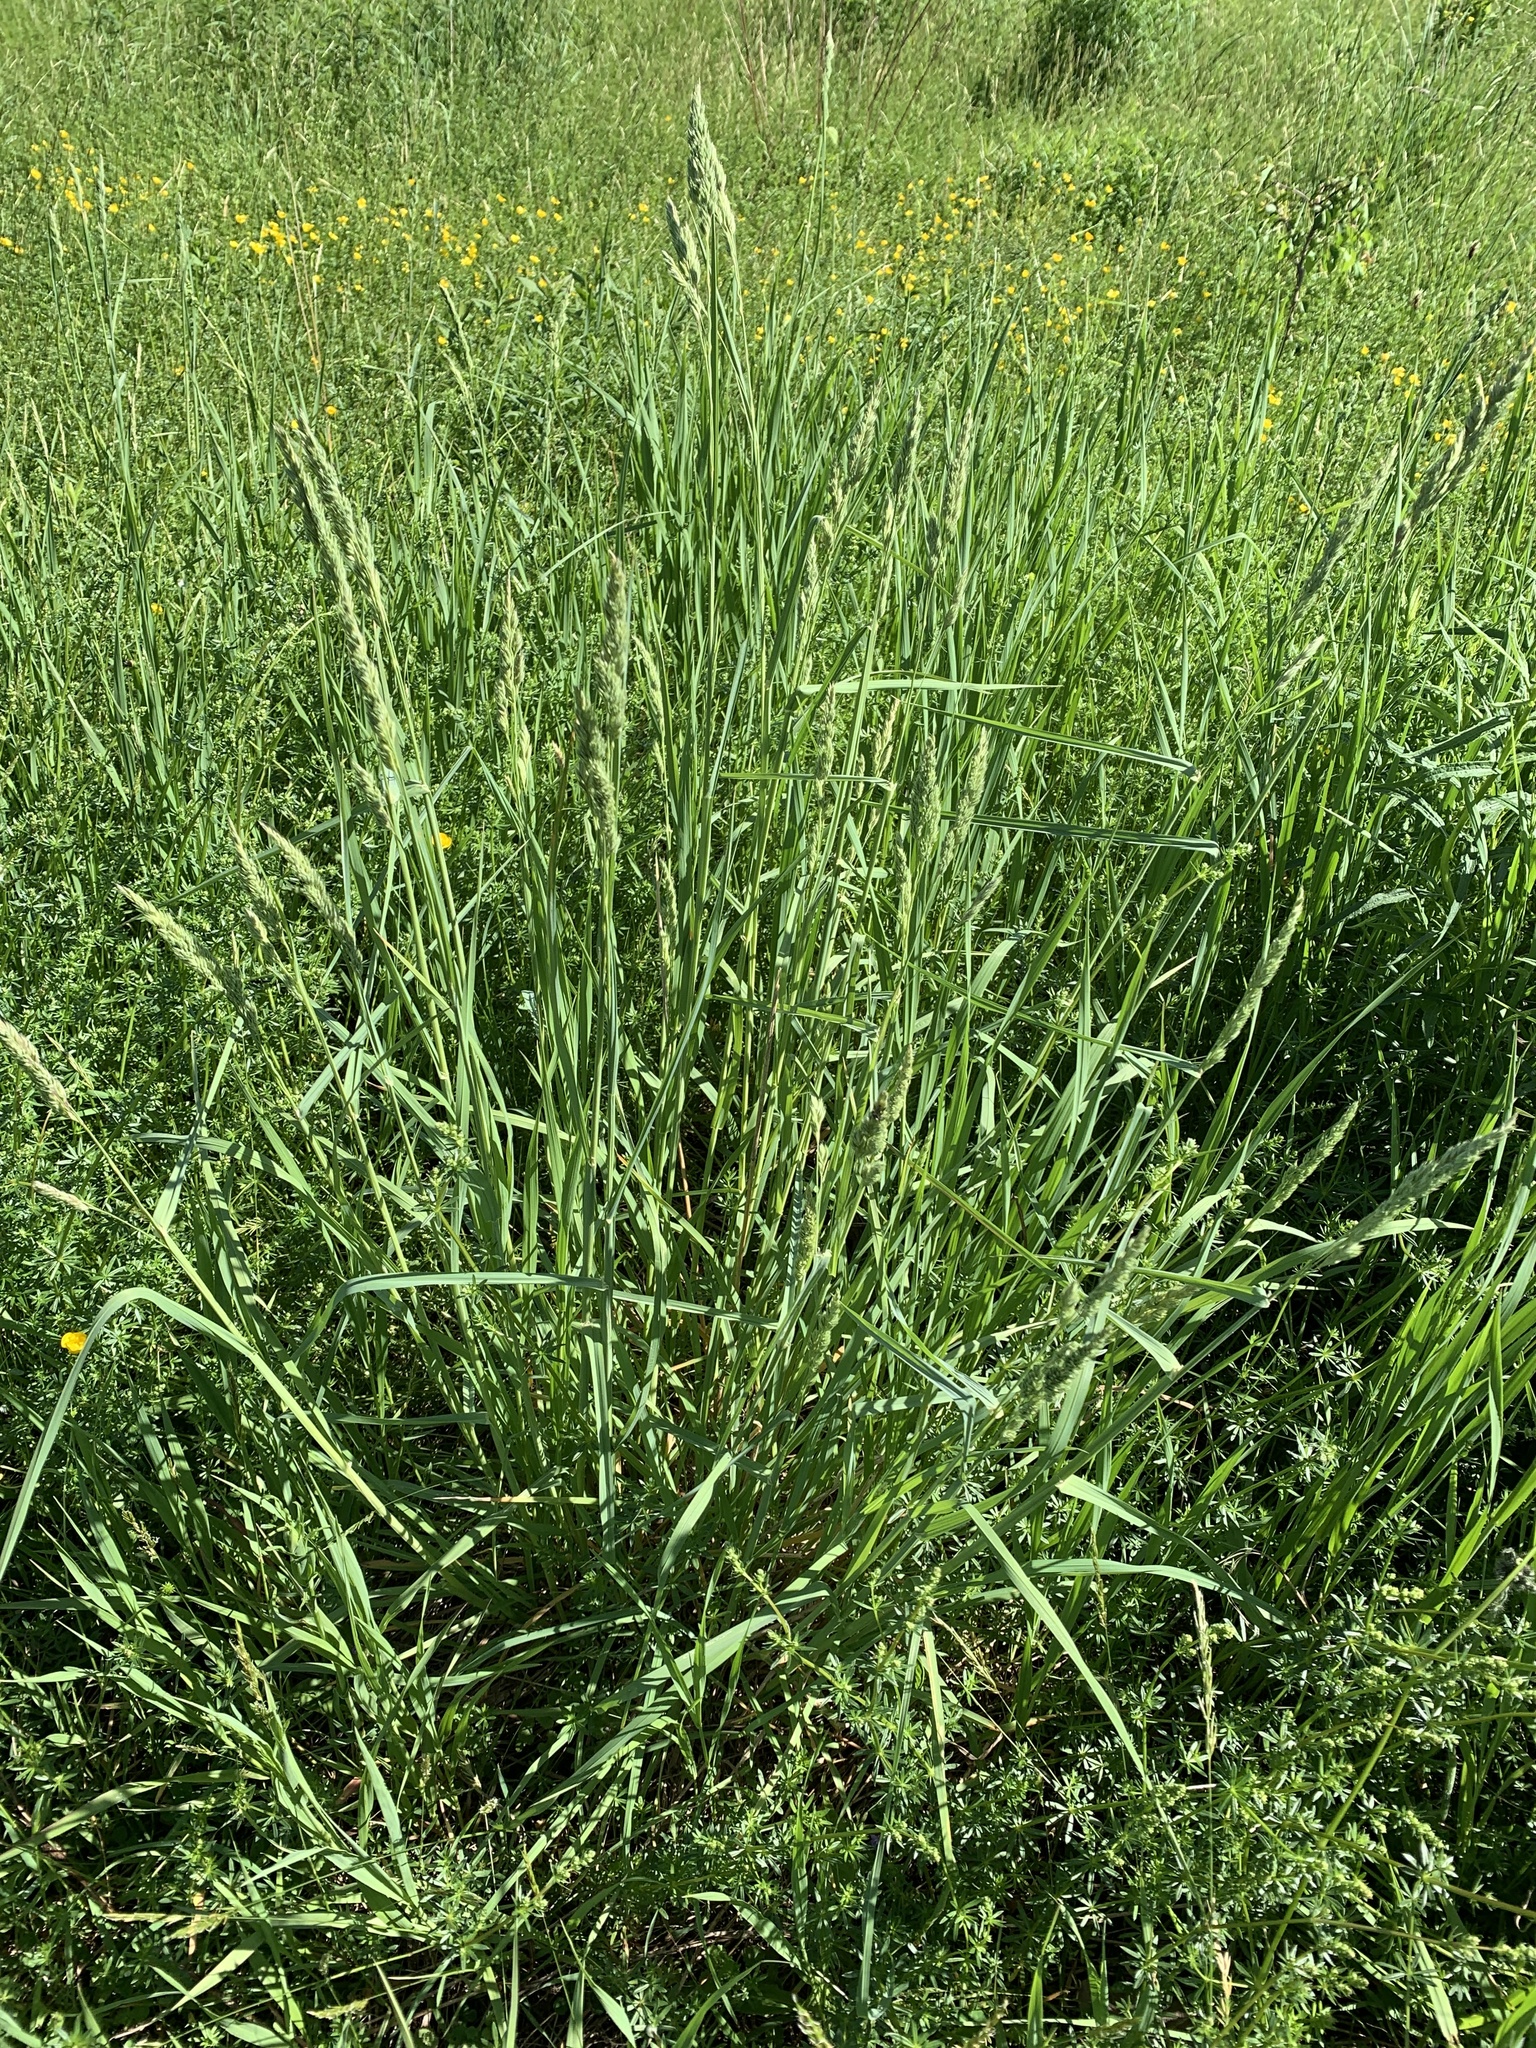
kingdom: Plantae
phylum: Tracheophyta
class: Liliopsida
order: Poales
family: Poaceae
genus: Dactylis
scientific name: Dactylis glomerata
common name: Orchardgrass
